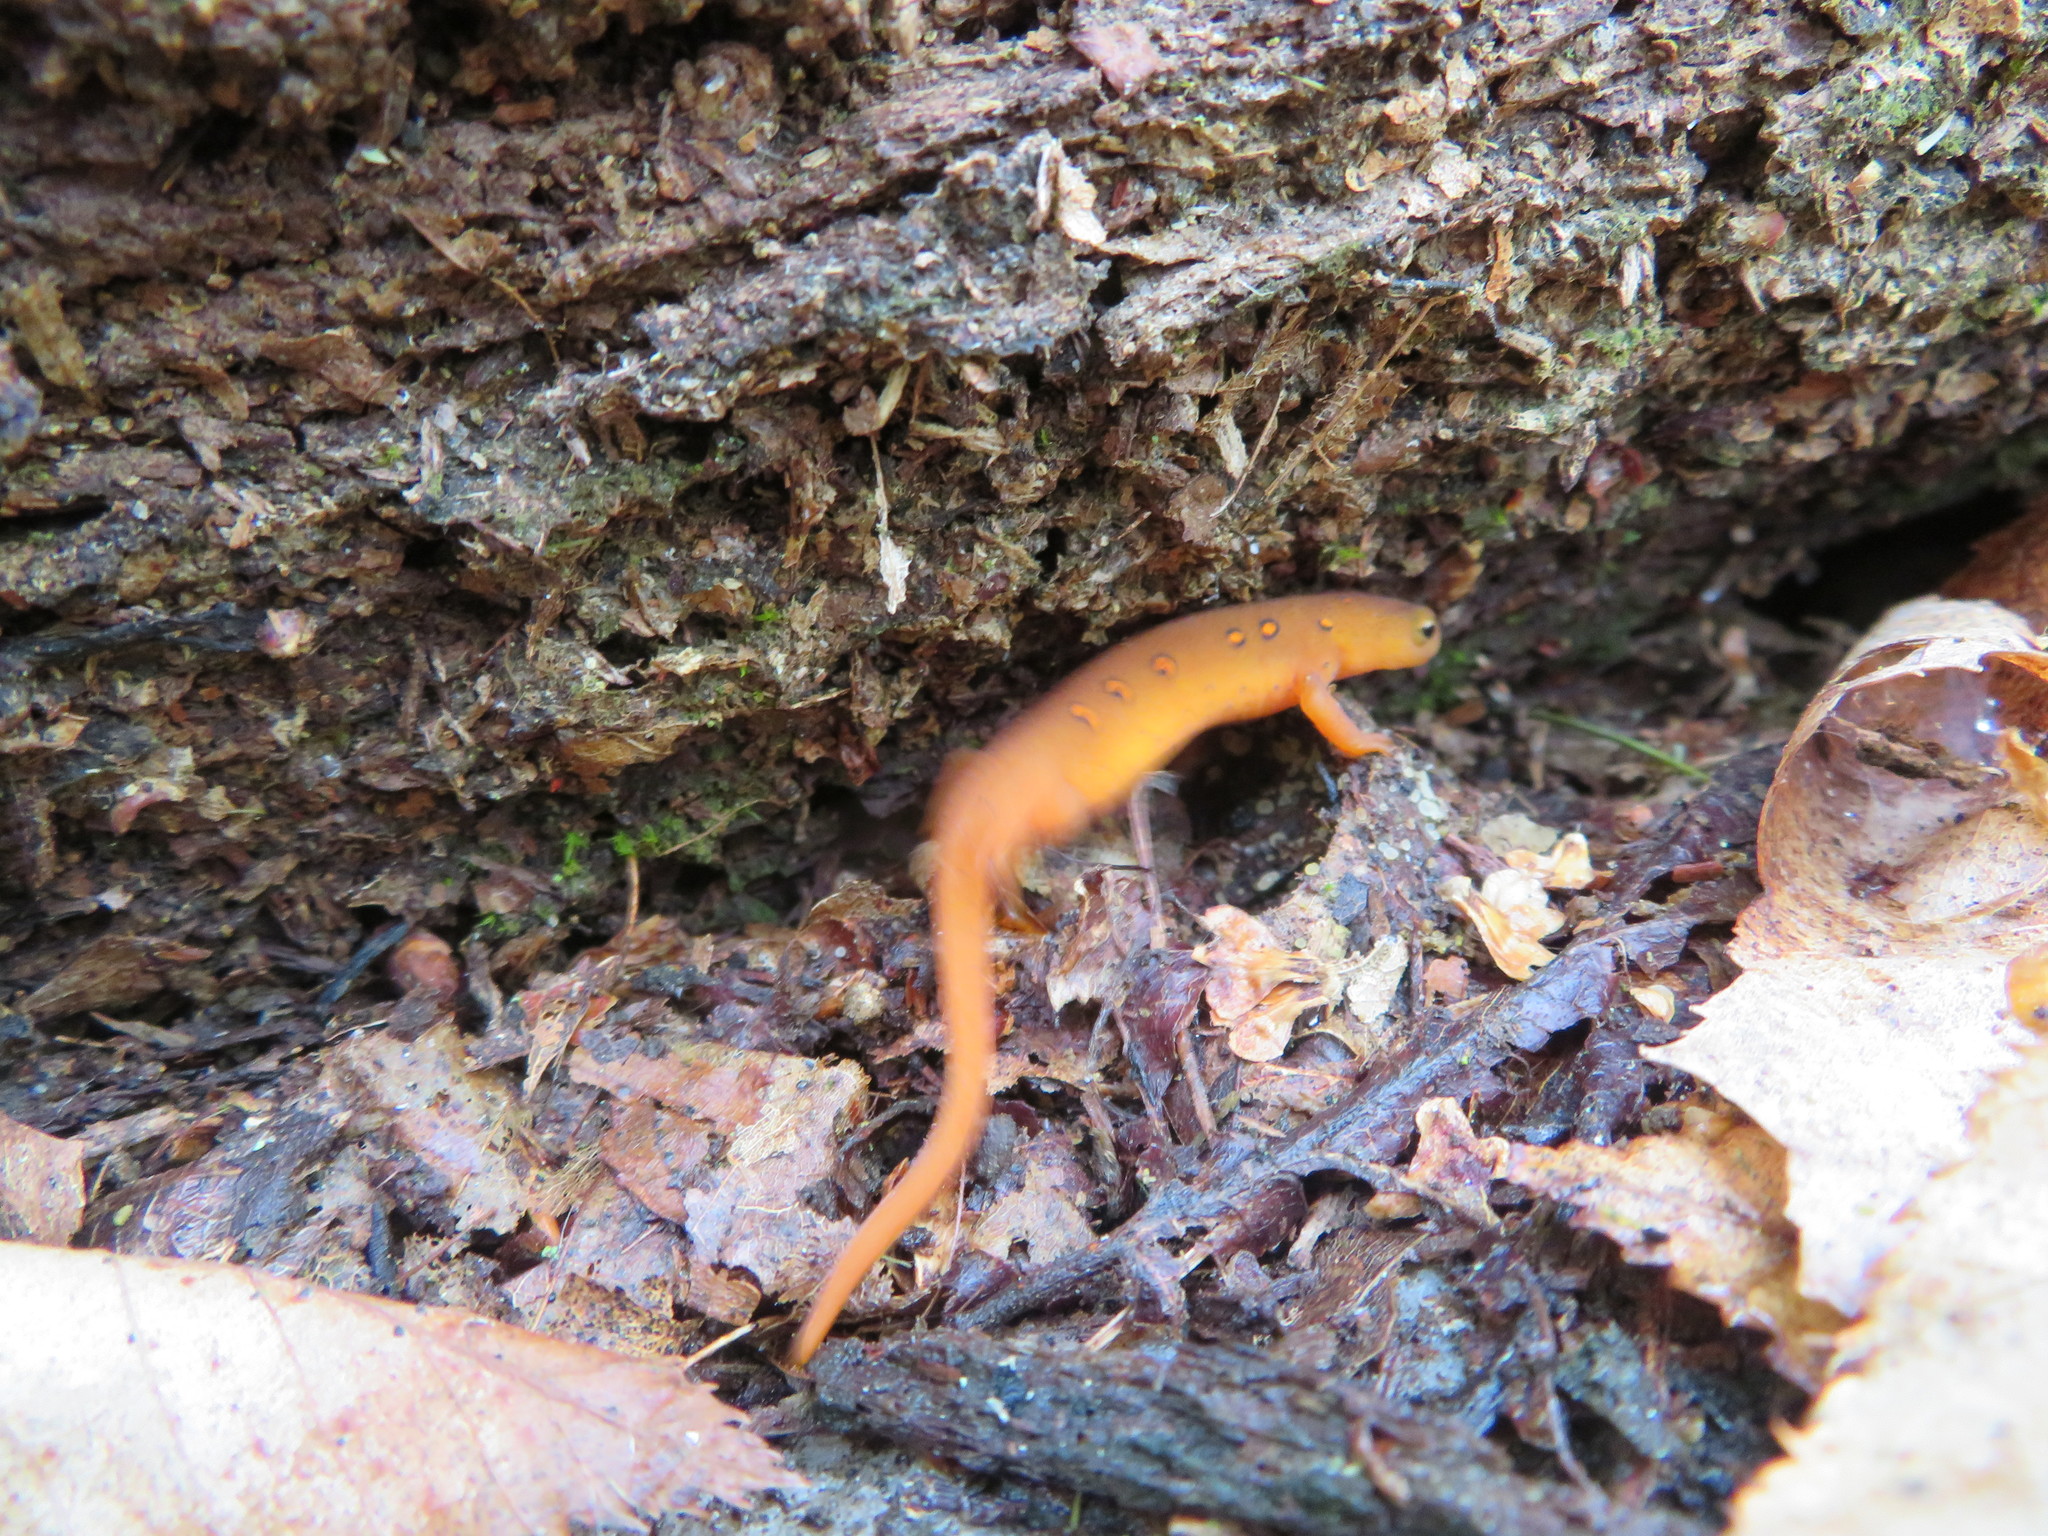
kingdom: Animalia
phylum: Chordata
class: Amphibia
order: Caudata
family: Salamandridae
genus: Notophthalmus
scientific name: Notophthalmus viridescens
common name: Eastern newt
